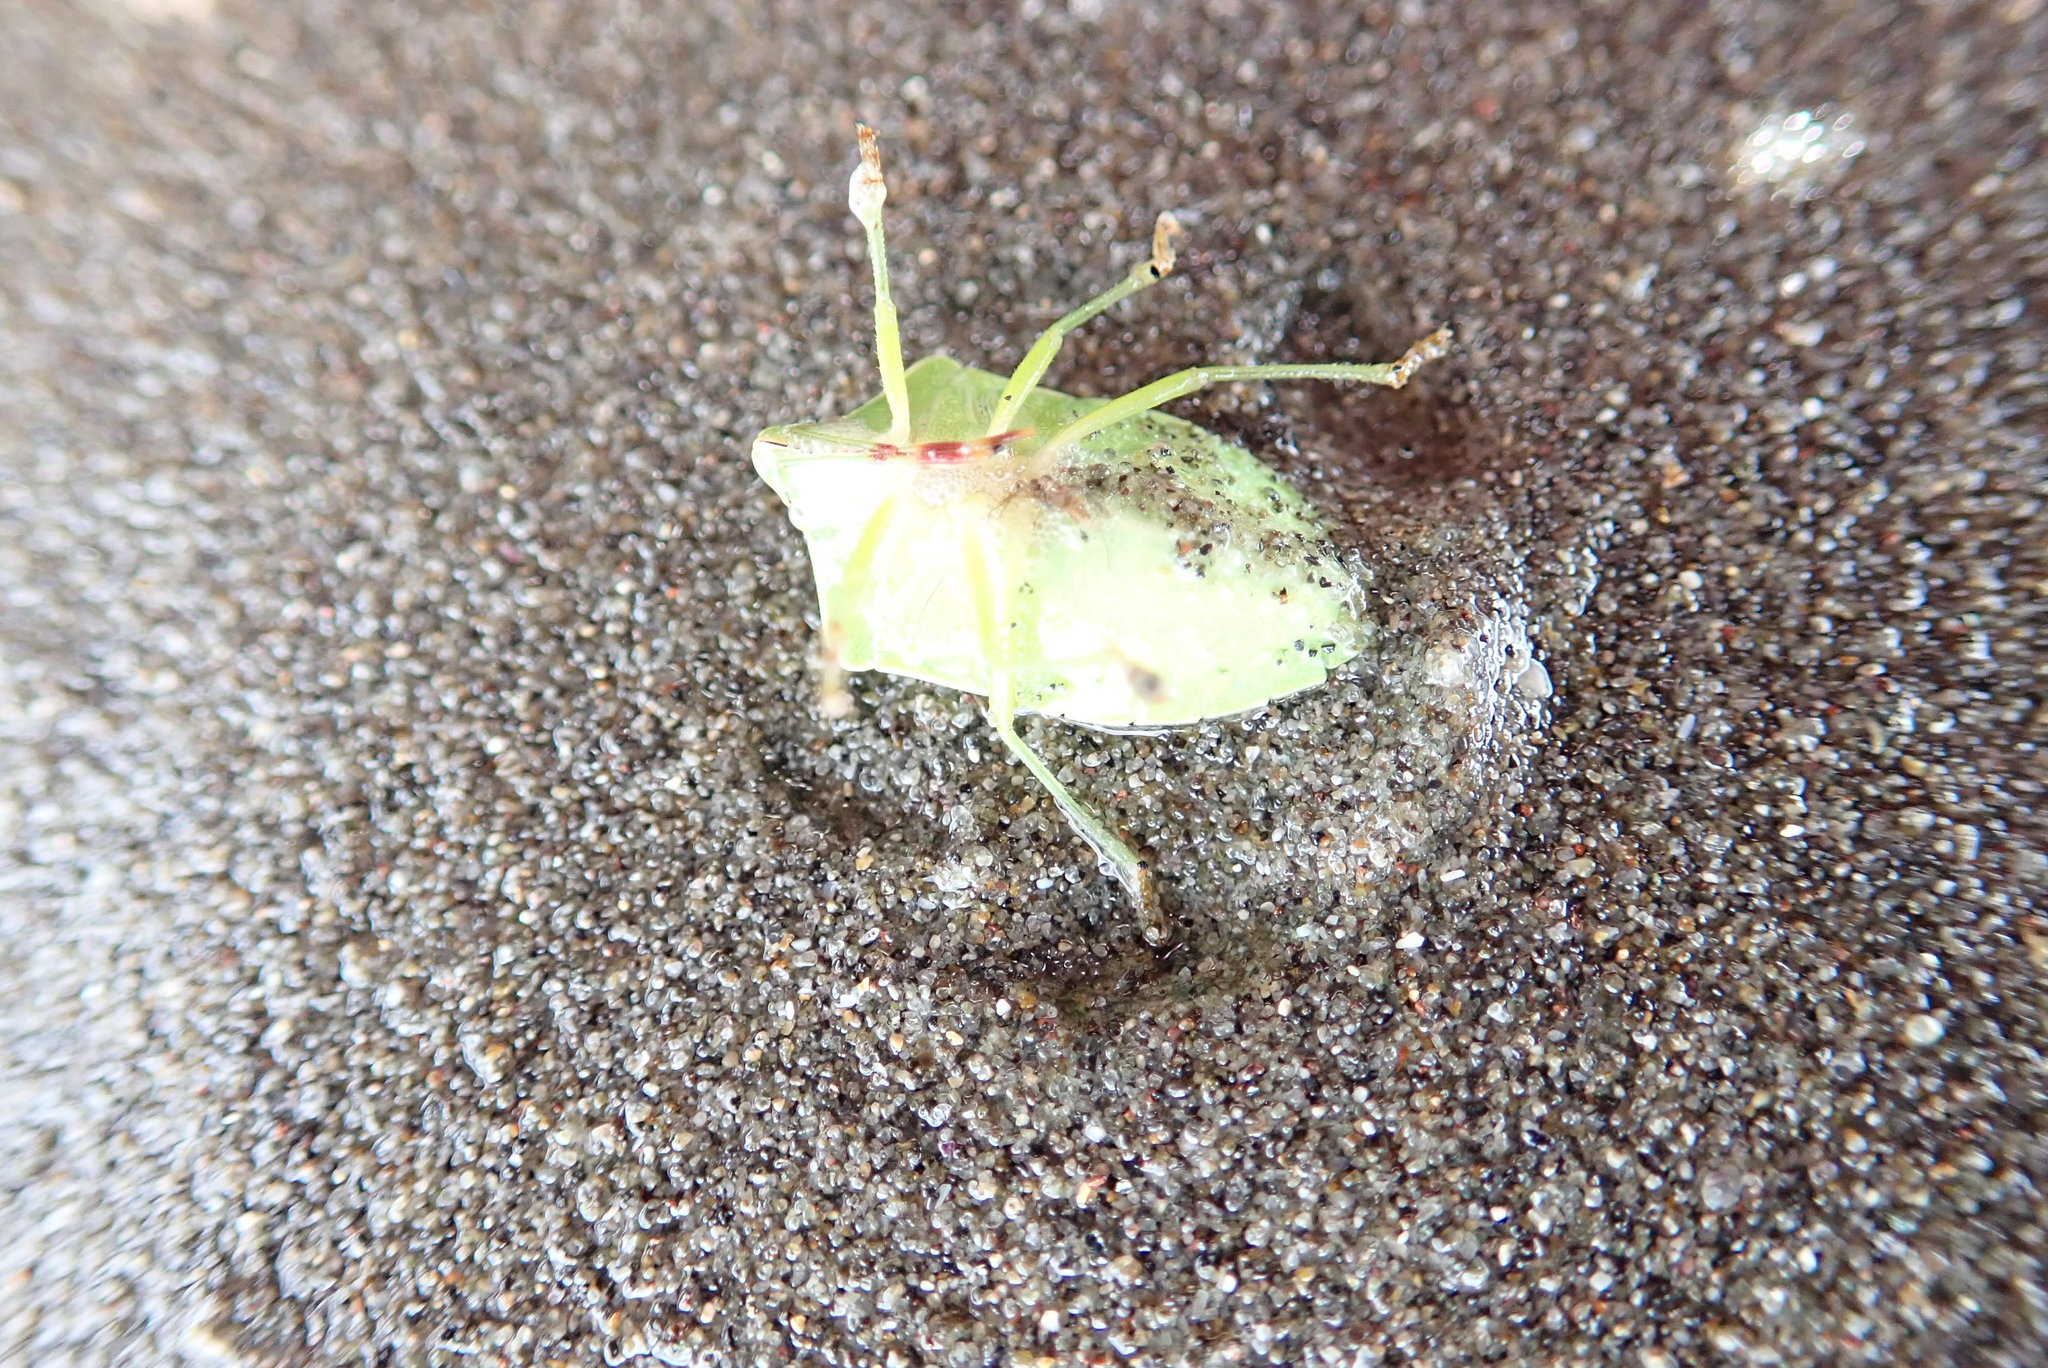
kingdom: Animalia
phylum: Arthropoda
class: Insecta
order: Hemiptera
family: Pentatomidae
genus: Nezara
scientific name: Nezara viridula
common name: Southern green stink bug
